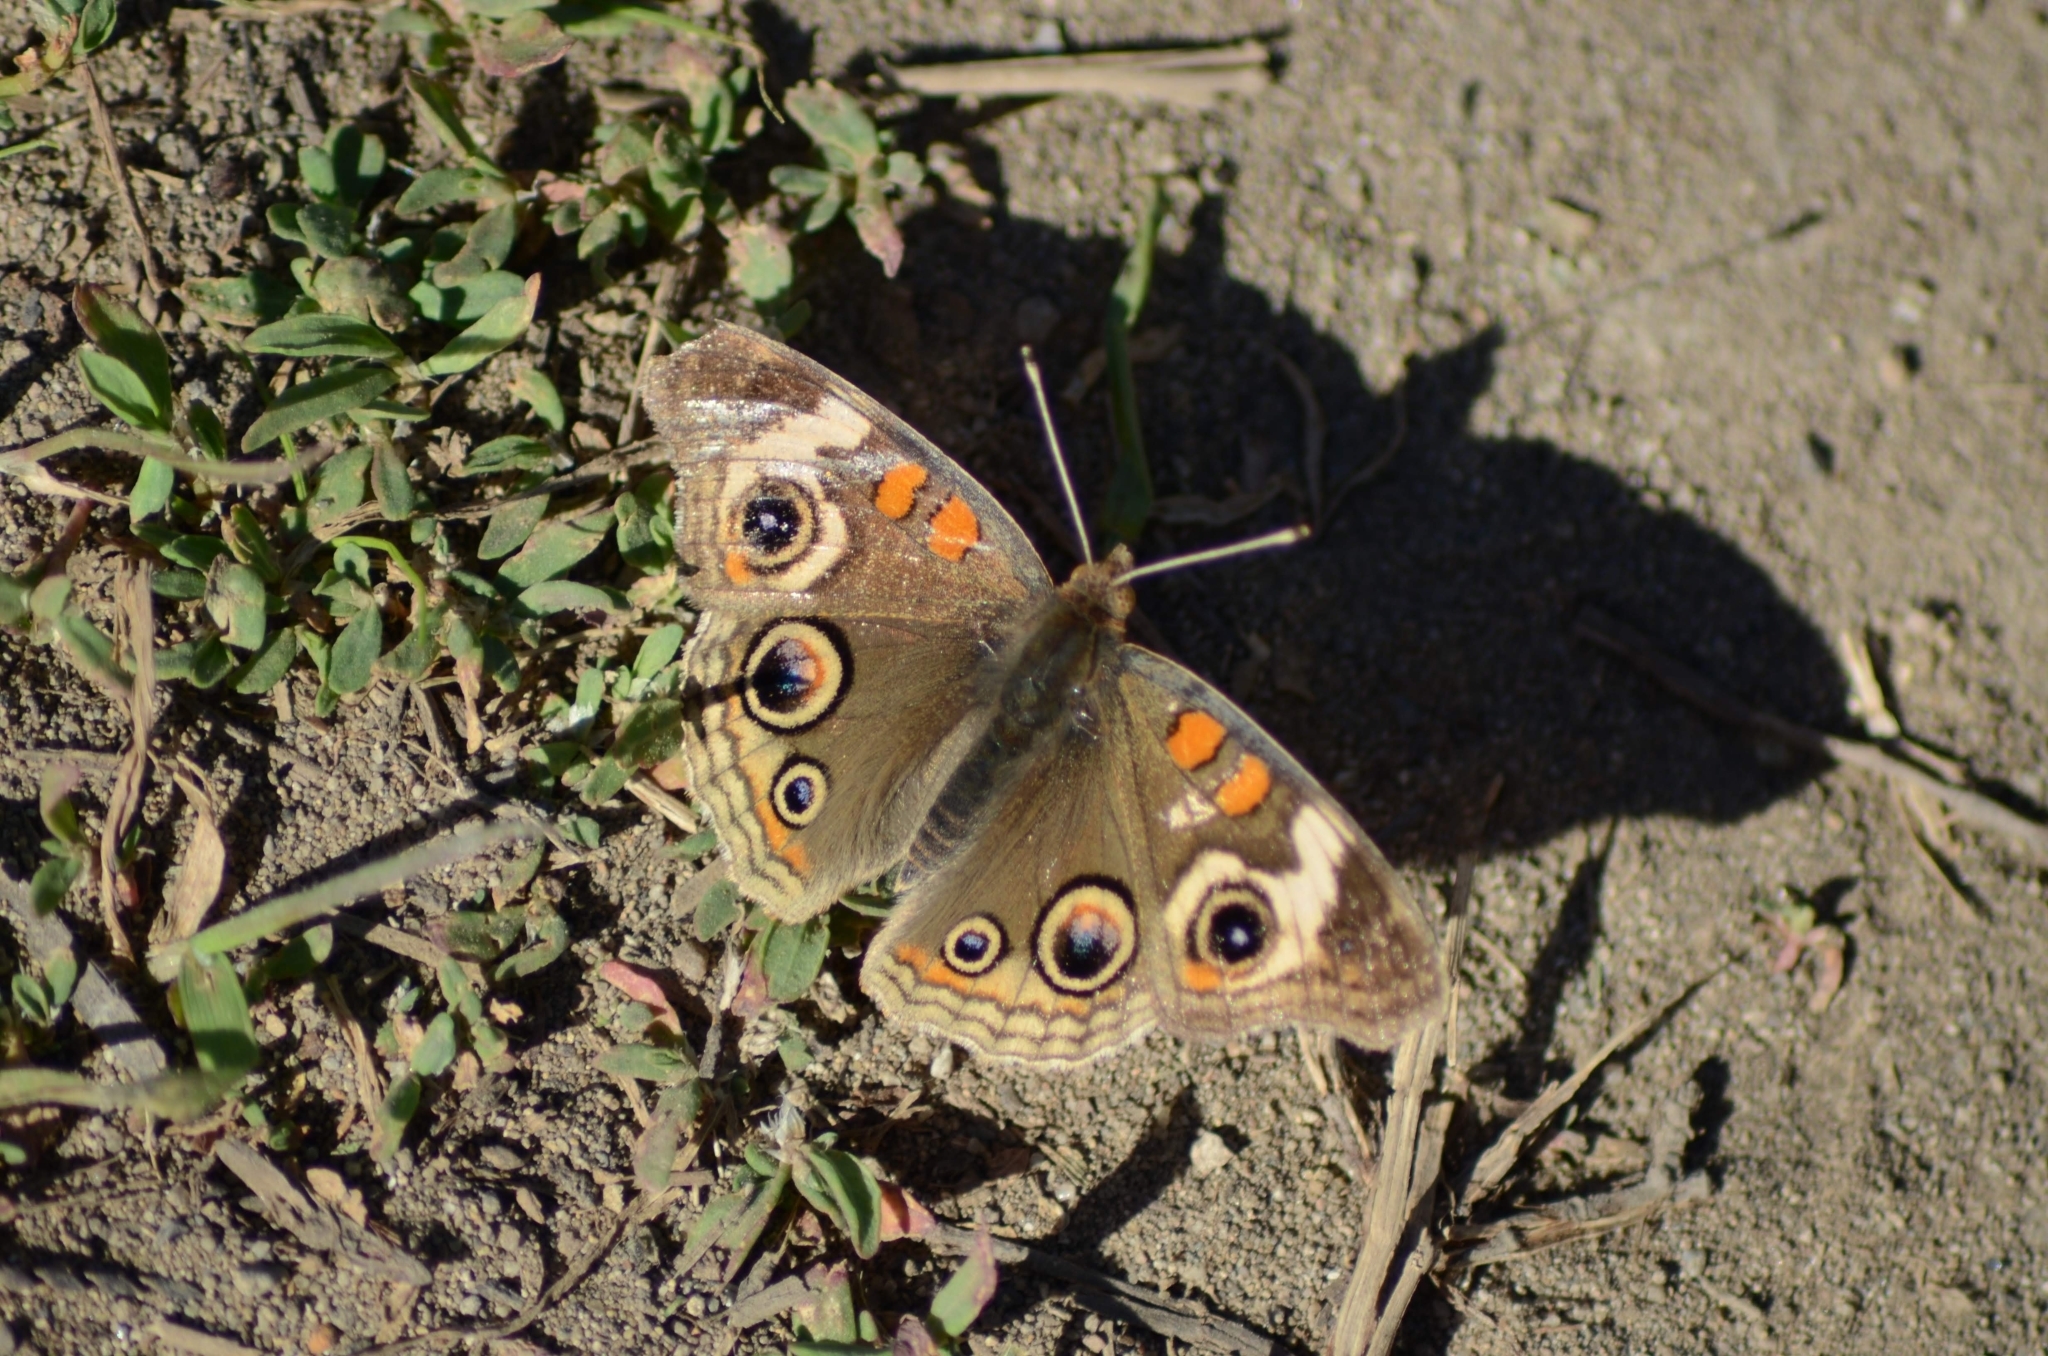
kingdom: Animalia
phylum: Arthropoda
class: Insecta
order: Lepidoptera
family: Nymphalidae
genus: Junonia
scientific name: Junonia grisea
